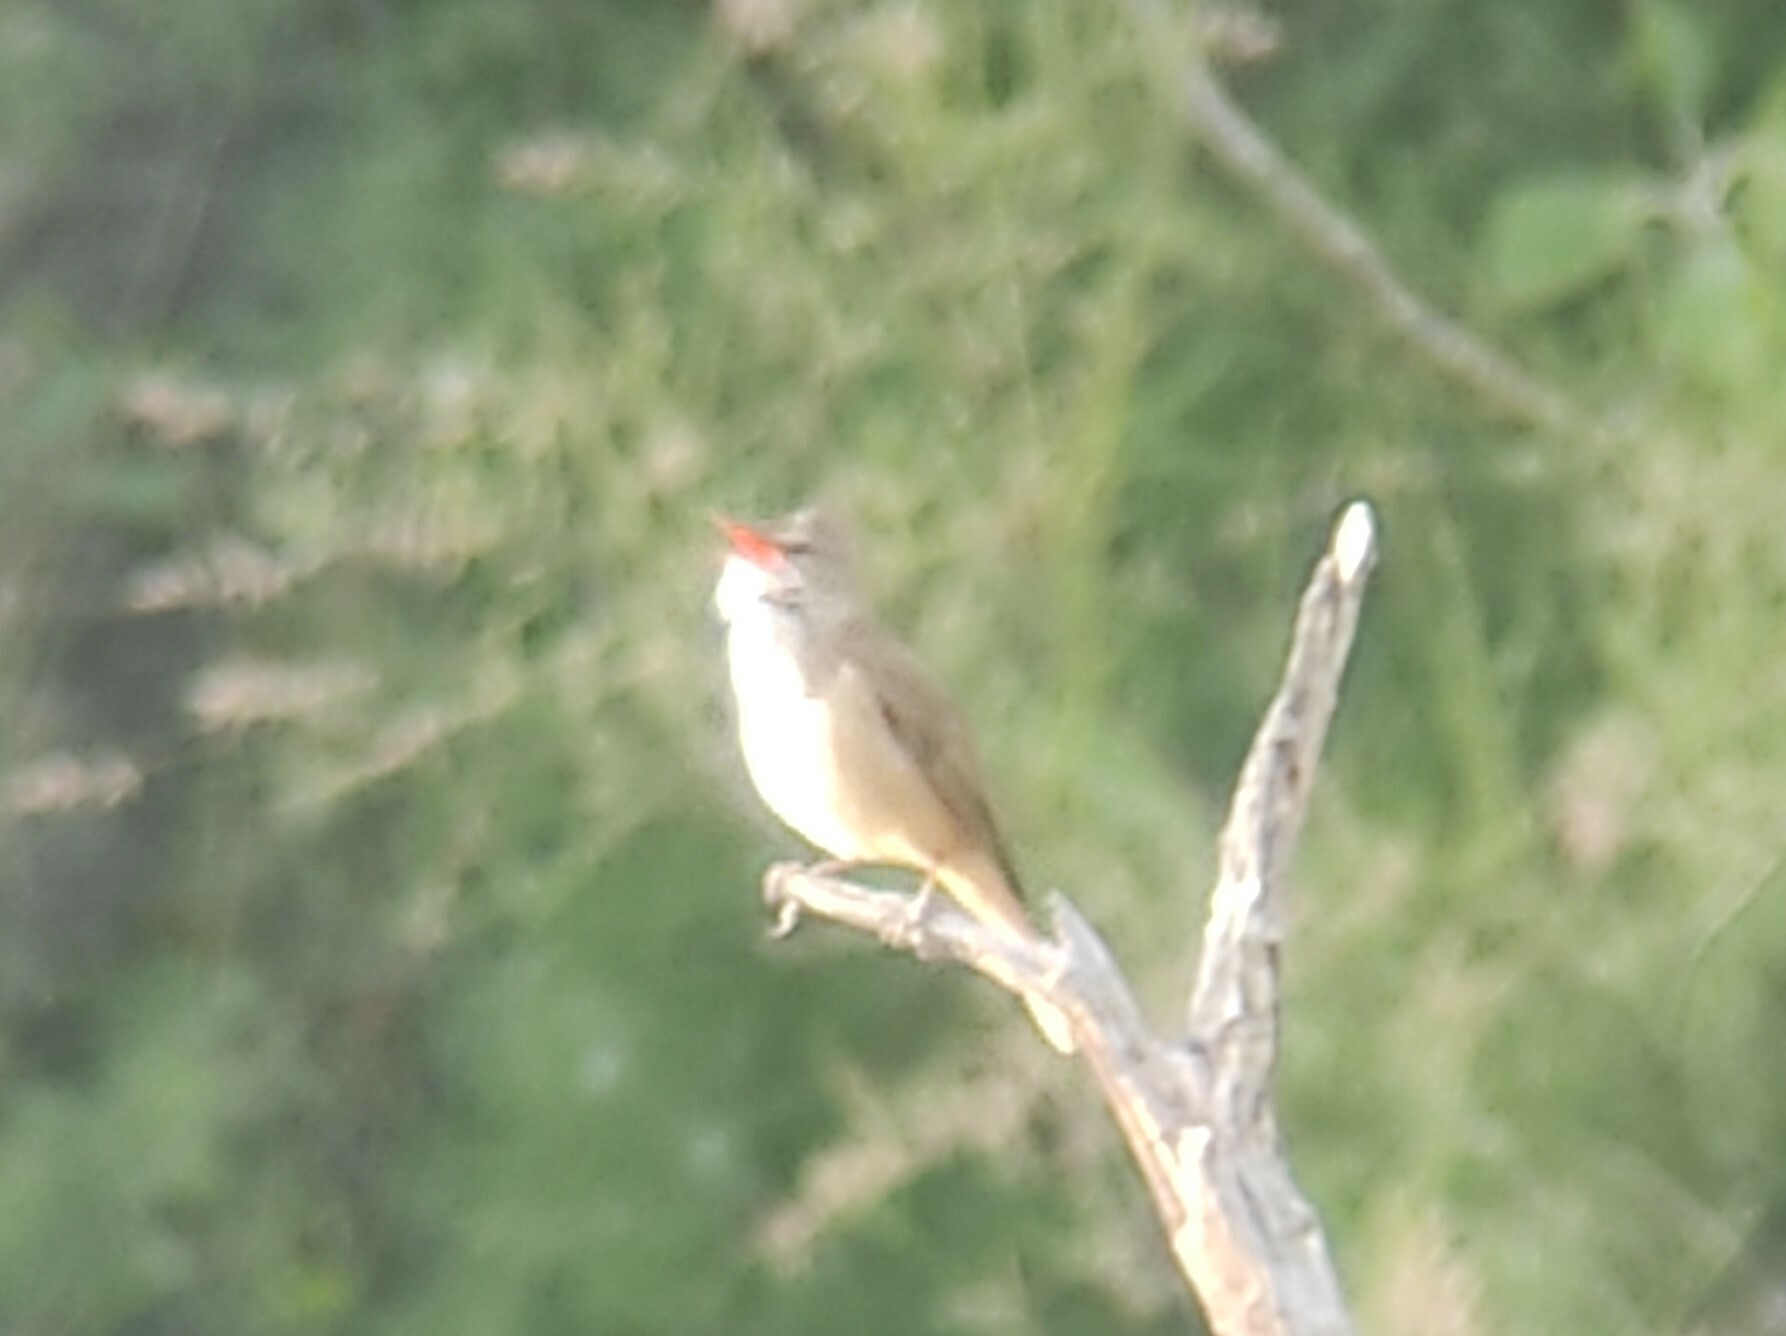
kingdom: Animalia
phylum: Chordata
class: Aves
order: Passeriformes
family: Acrocephalidae
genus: Acrocephalus
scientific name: Acrocephalus arundinaceus
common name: Great reed warbler
